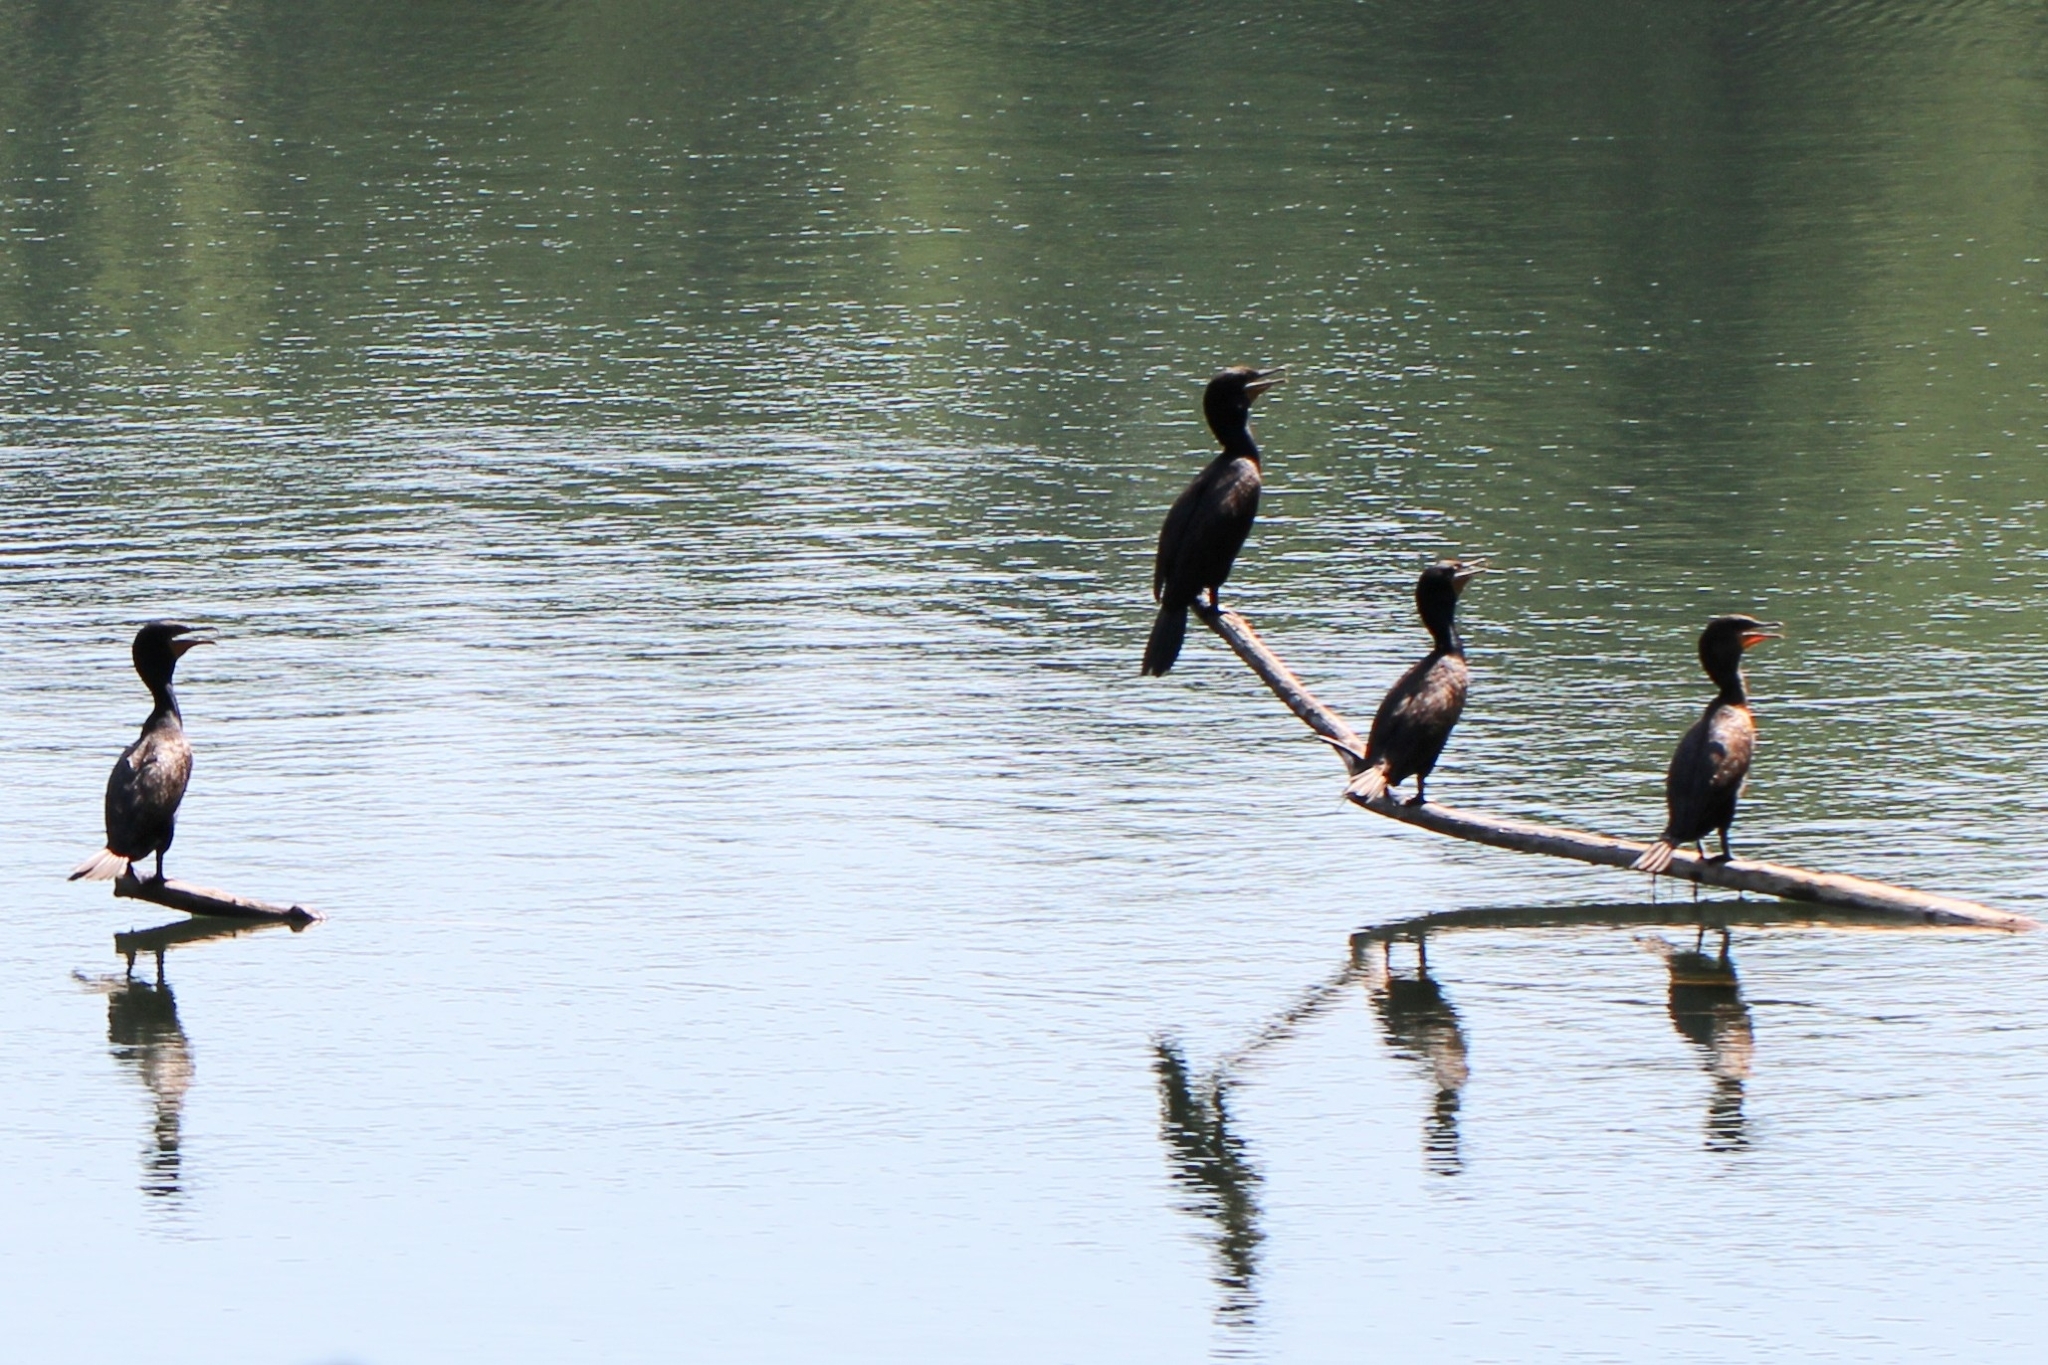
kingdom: Animalia
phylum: Chordata
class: Aves
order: Suliformes
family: Phalacrocoracidae
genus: Phalacrocorax
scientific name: Phalacrocorax auritus
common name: Double-crested cormorant
